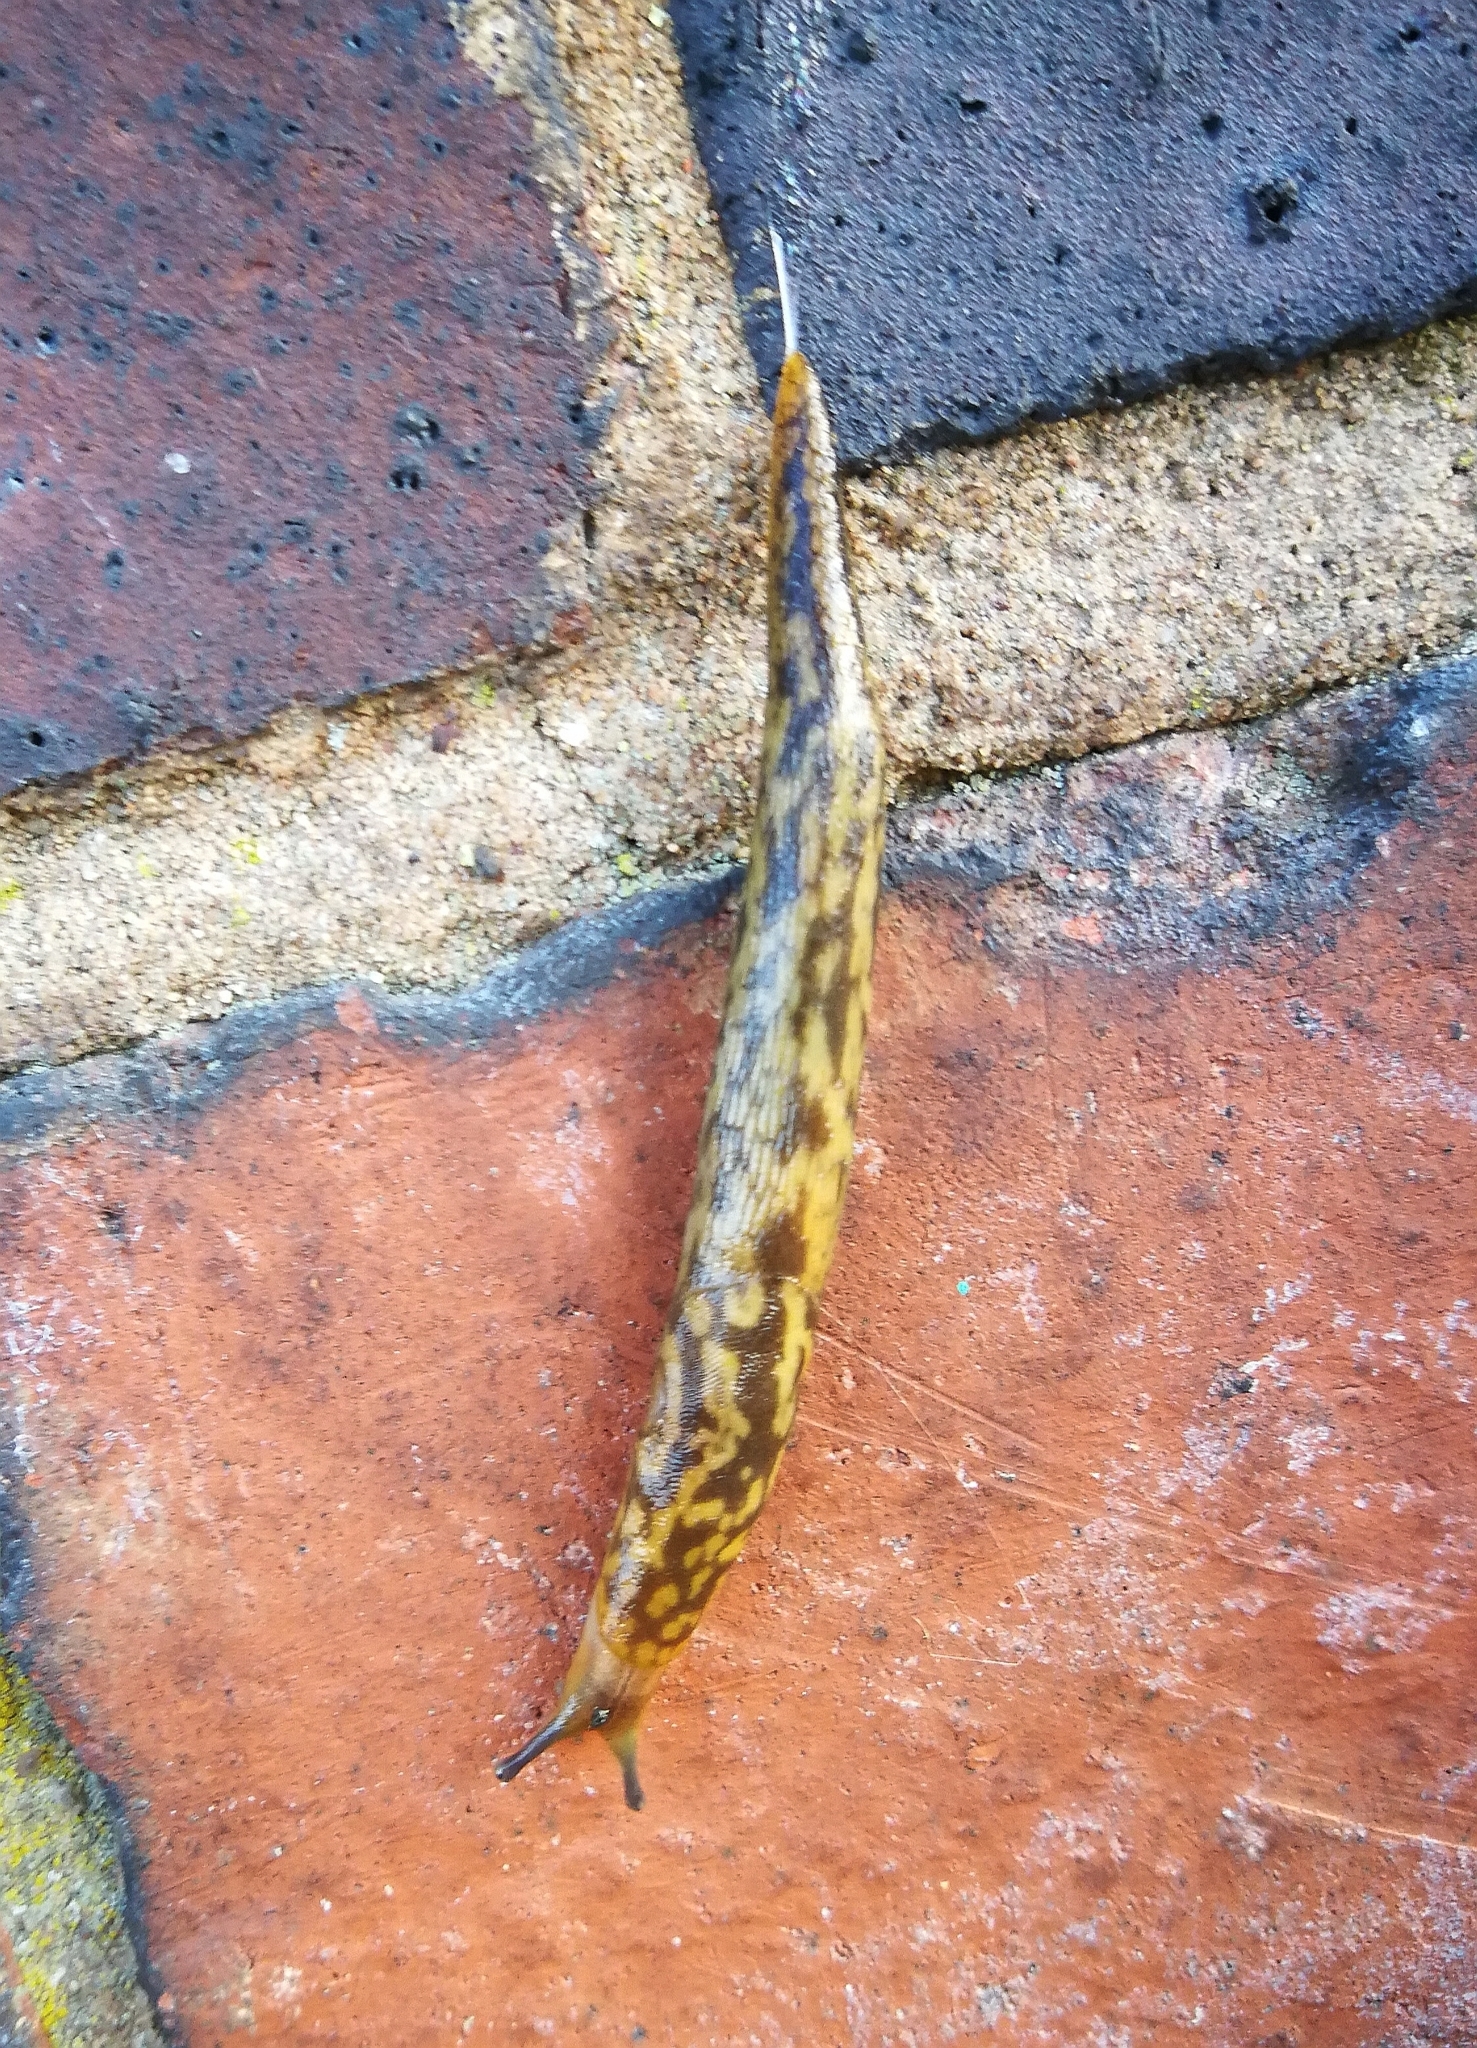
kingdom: Animalia
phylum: Mollusca
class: Gastropoda
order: Stylommatophora
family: Limacidae
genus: Limacus
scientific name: Limacus maculatus
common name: Irish yellow slug
